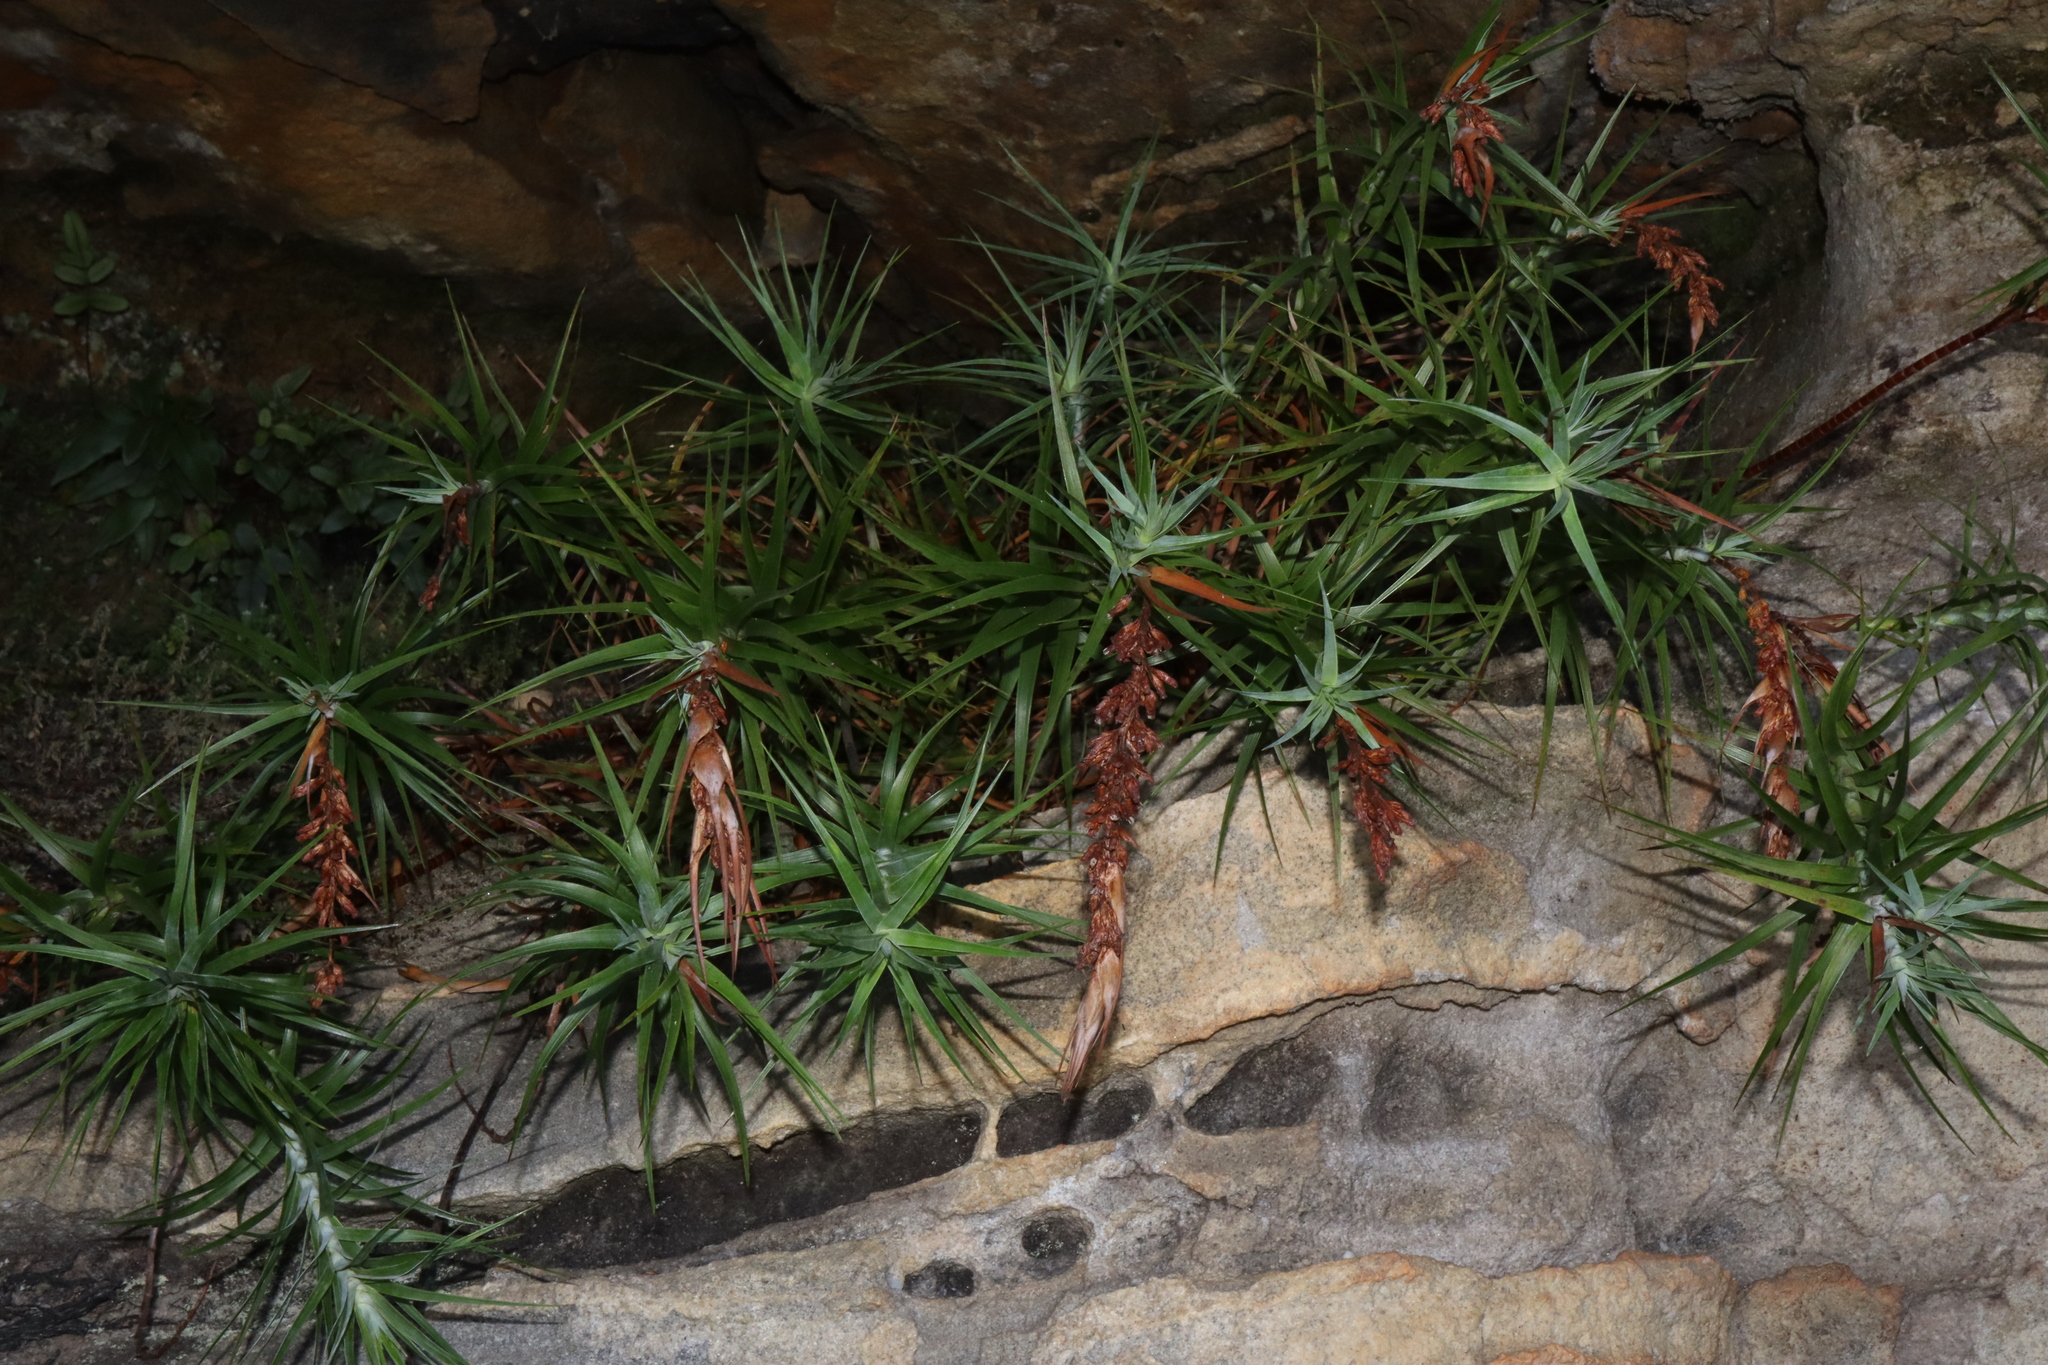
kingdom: Plantae
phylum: Tracheophyta
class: Magnoliopsida
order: Ericales
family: Ericaceae
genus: Dracophyllum
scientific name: Dracophyllum secundum
